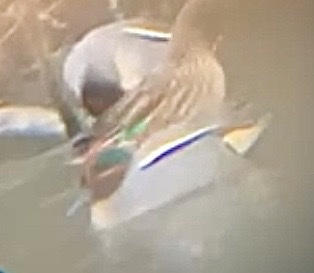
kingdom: Animalia
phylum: Chordata
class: Aves
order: Anseriformes
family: Anatidae
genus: Anas
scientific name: Anas crecca
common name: Eurasian teal
